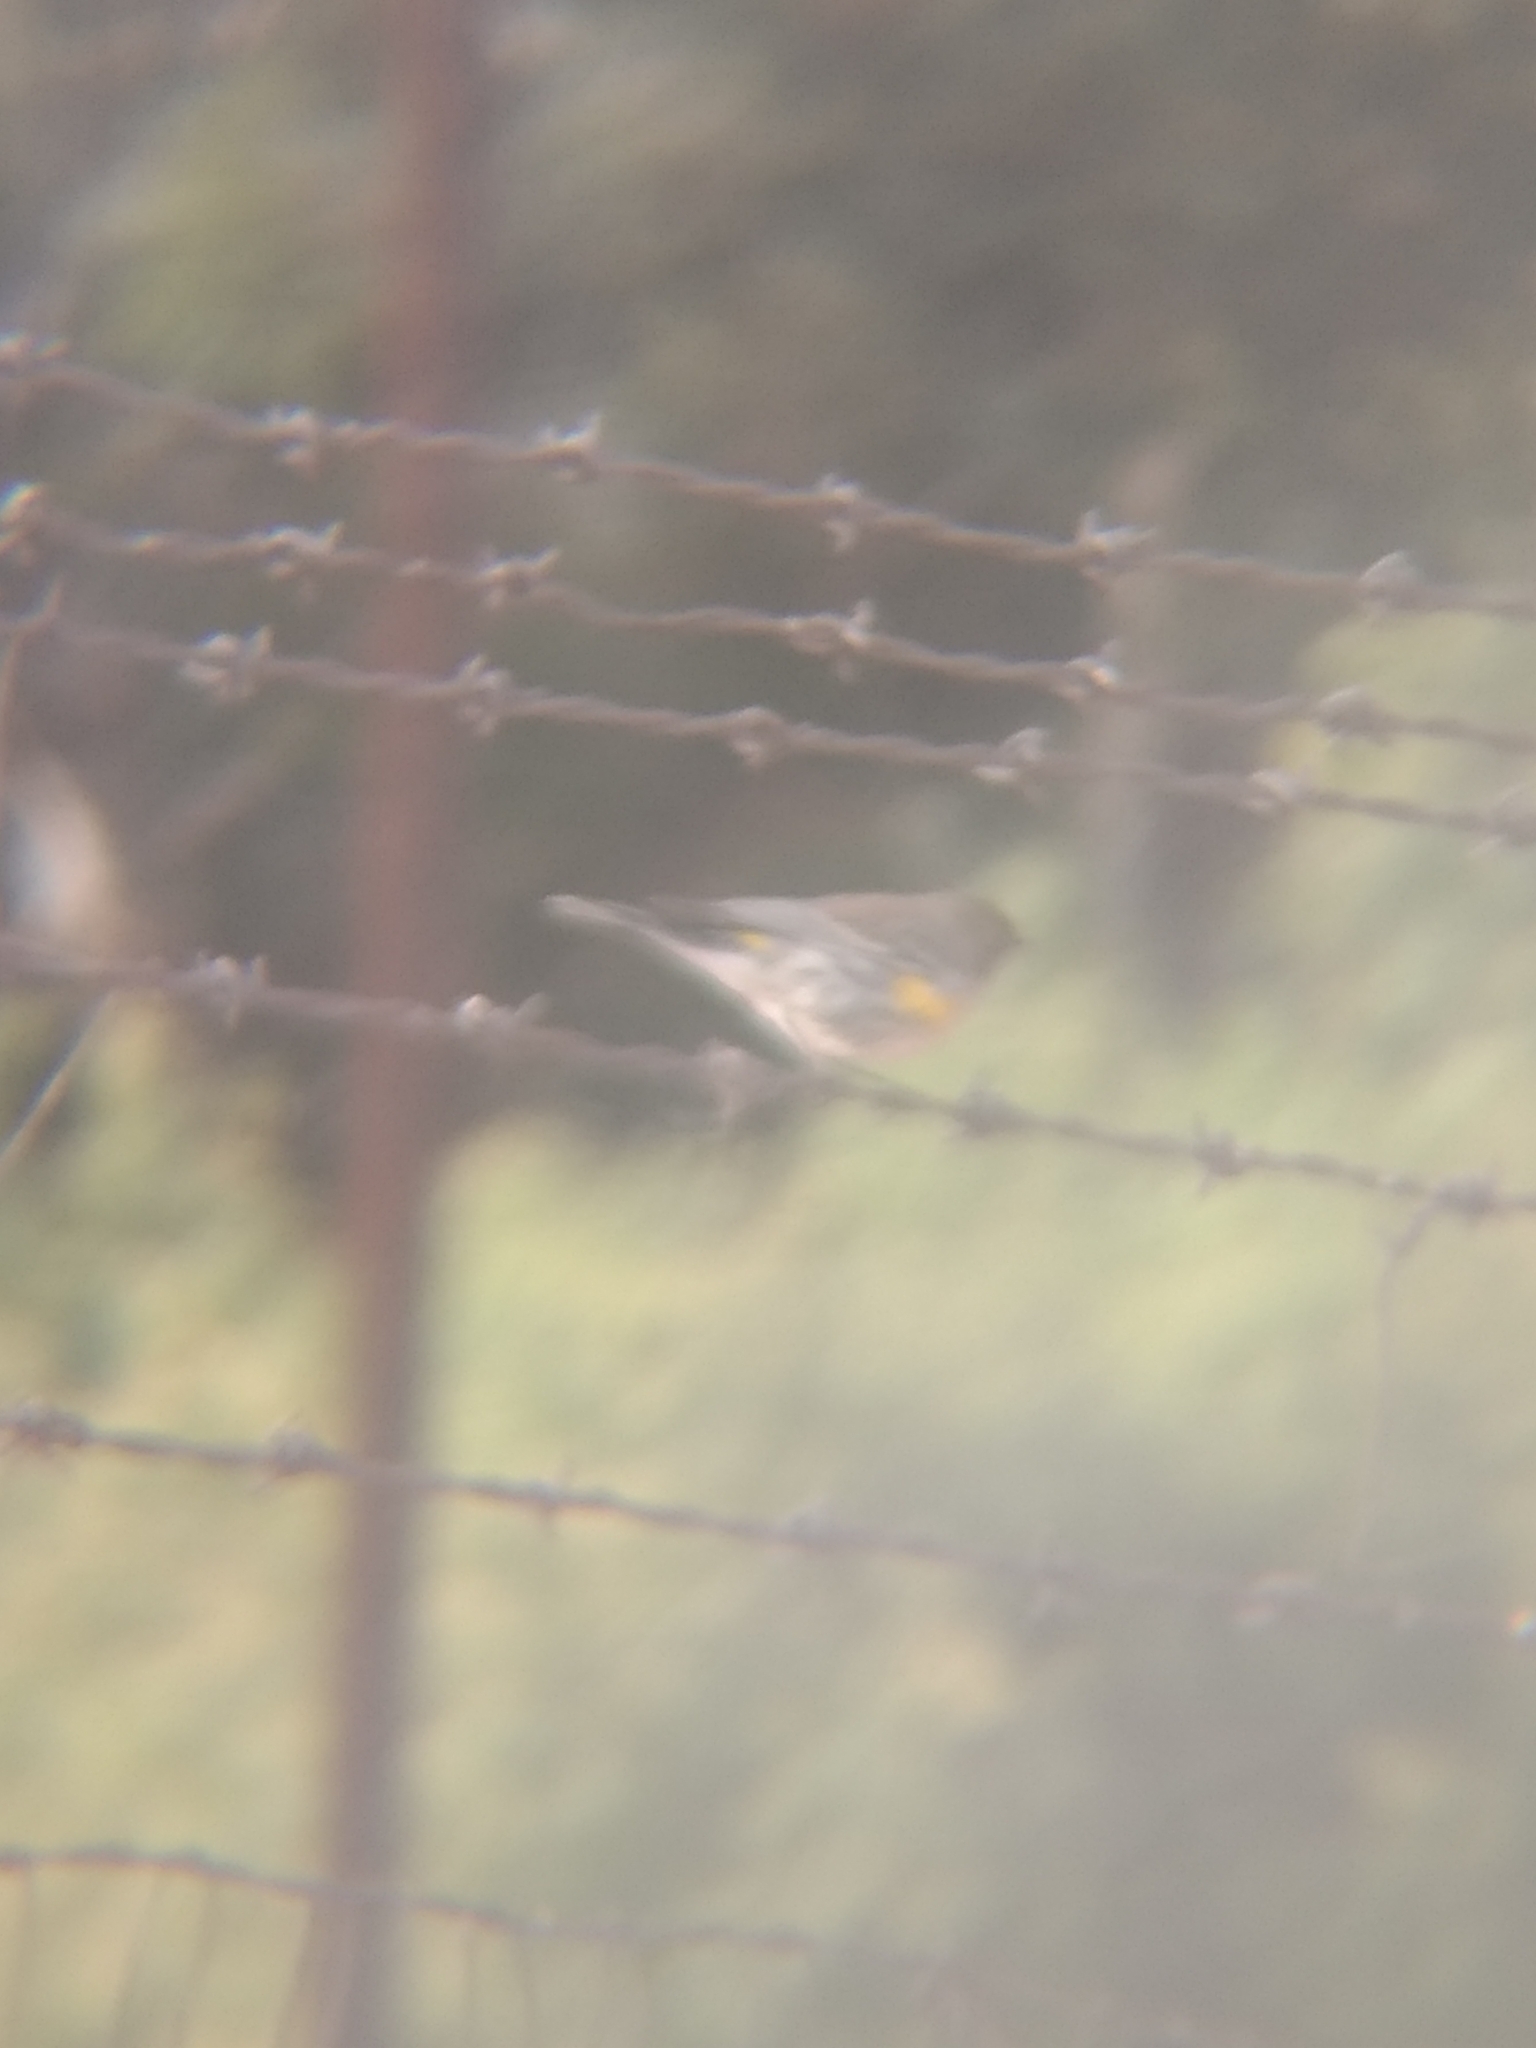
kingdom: Animalia
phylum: Chordata
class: Aves
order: Passeriformes
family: Parulidae
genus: Setophaga
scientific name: Setophaga coronata
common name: Myrtle warbler
